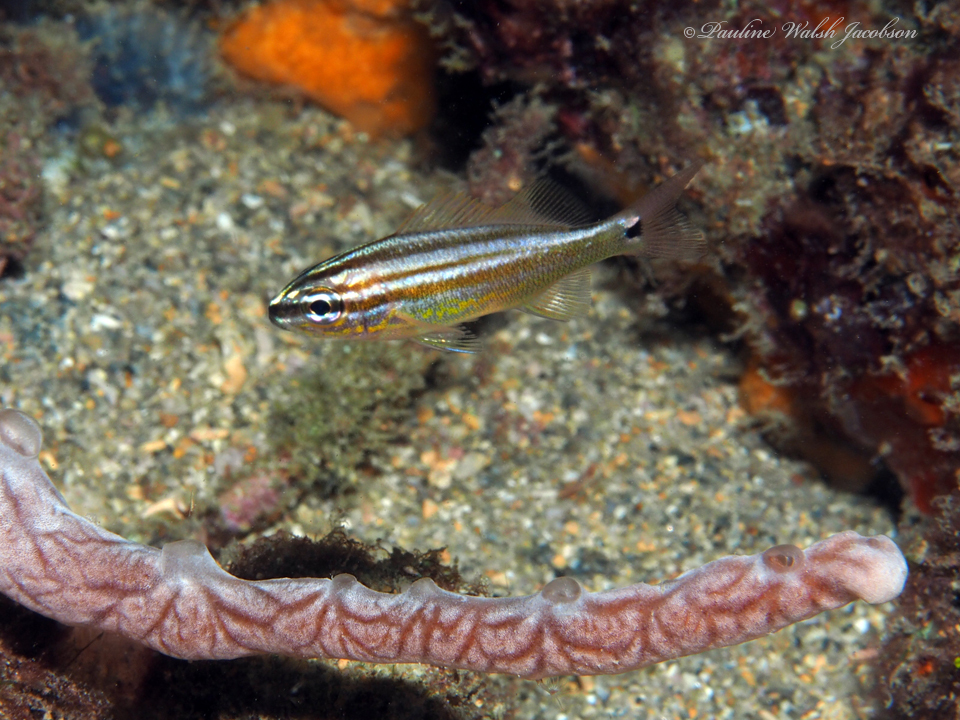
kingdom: Animalia
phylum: Chordata
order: Perciformes
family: Haemulidae
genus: Haemulon
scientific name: Haemulon plumierii
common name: White grunt
